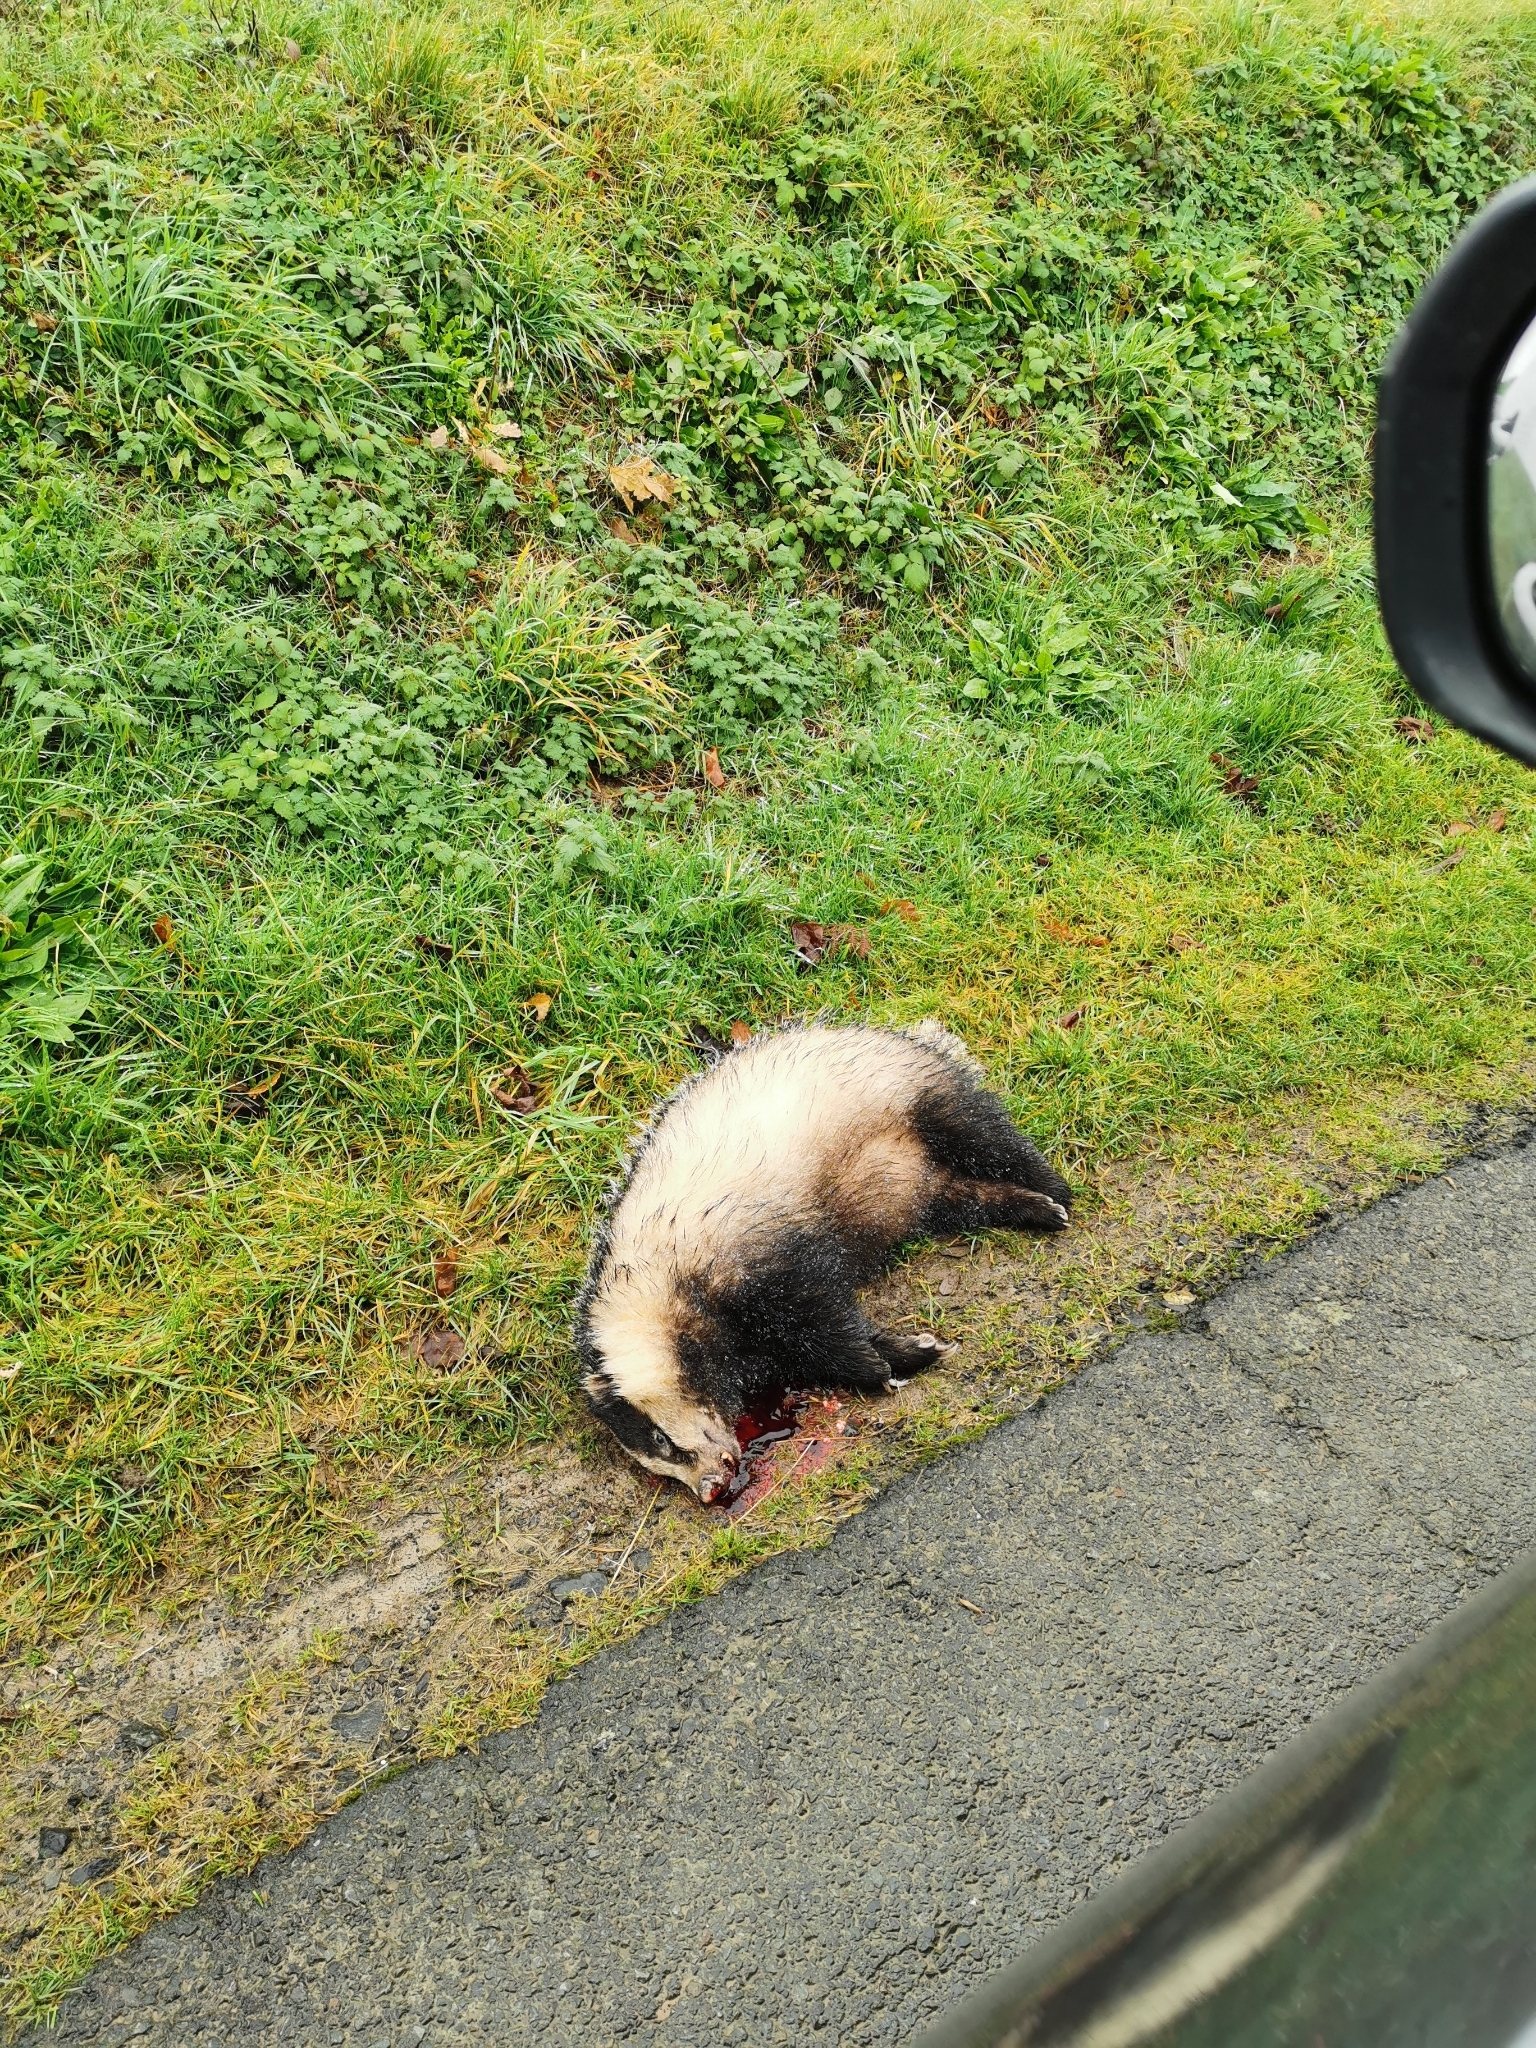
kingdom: Animalia
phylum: Chordata
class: Mammalia
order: Carnivora
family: Mustelidae
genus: Meles
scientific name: Meles meles
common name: Eurasian badger
